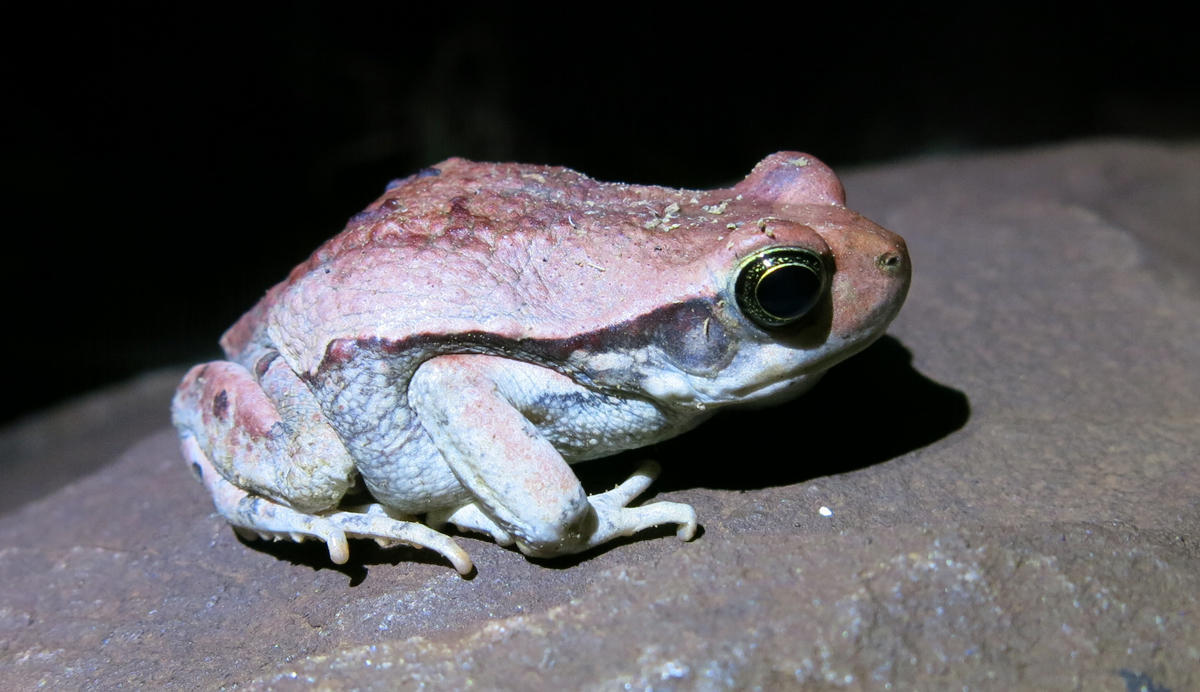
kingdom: Animalia
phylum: Chordata
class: Amphibia
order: Anura
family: Bufonidae
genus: Schismaderma
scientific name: Schismaderma carens
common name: African split-skin toad
